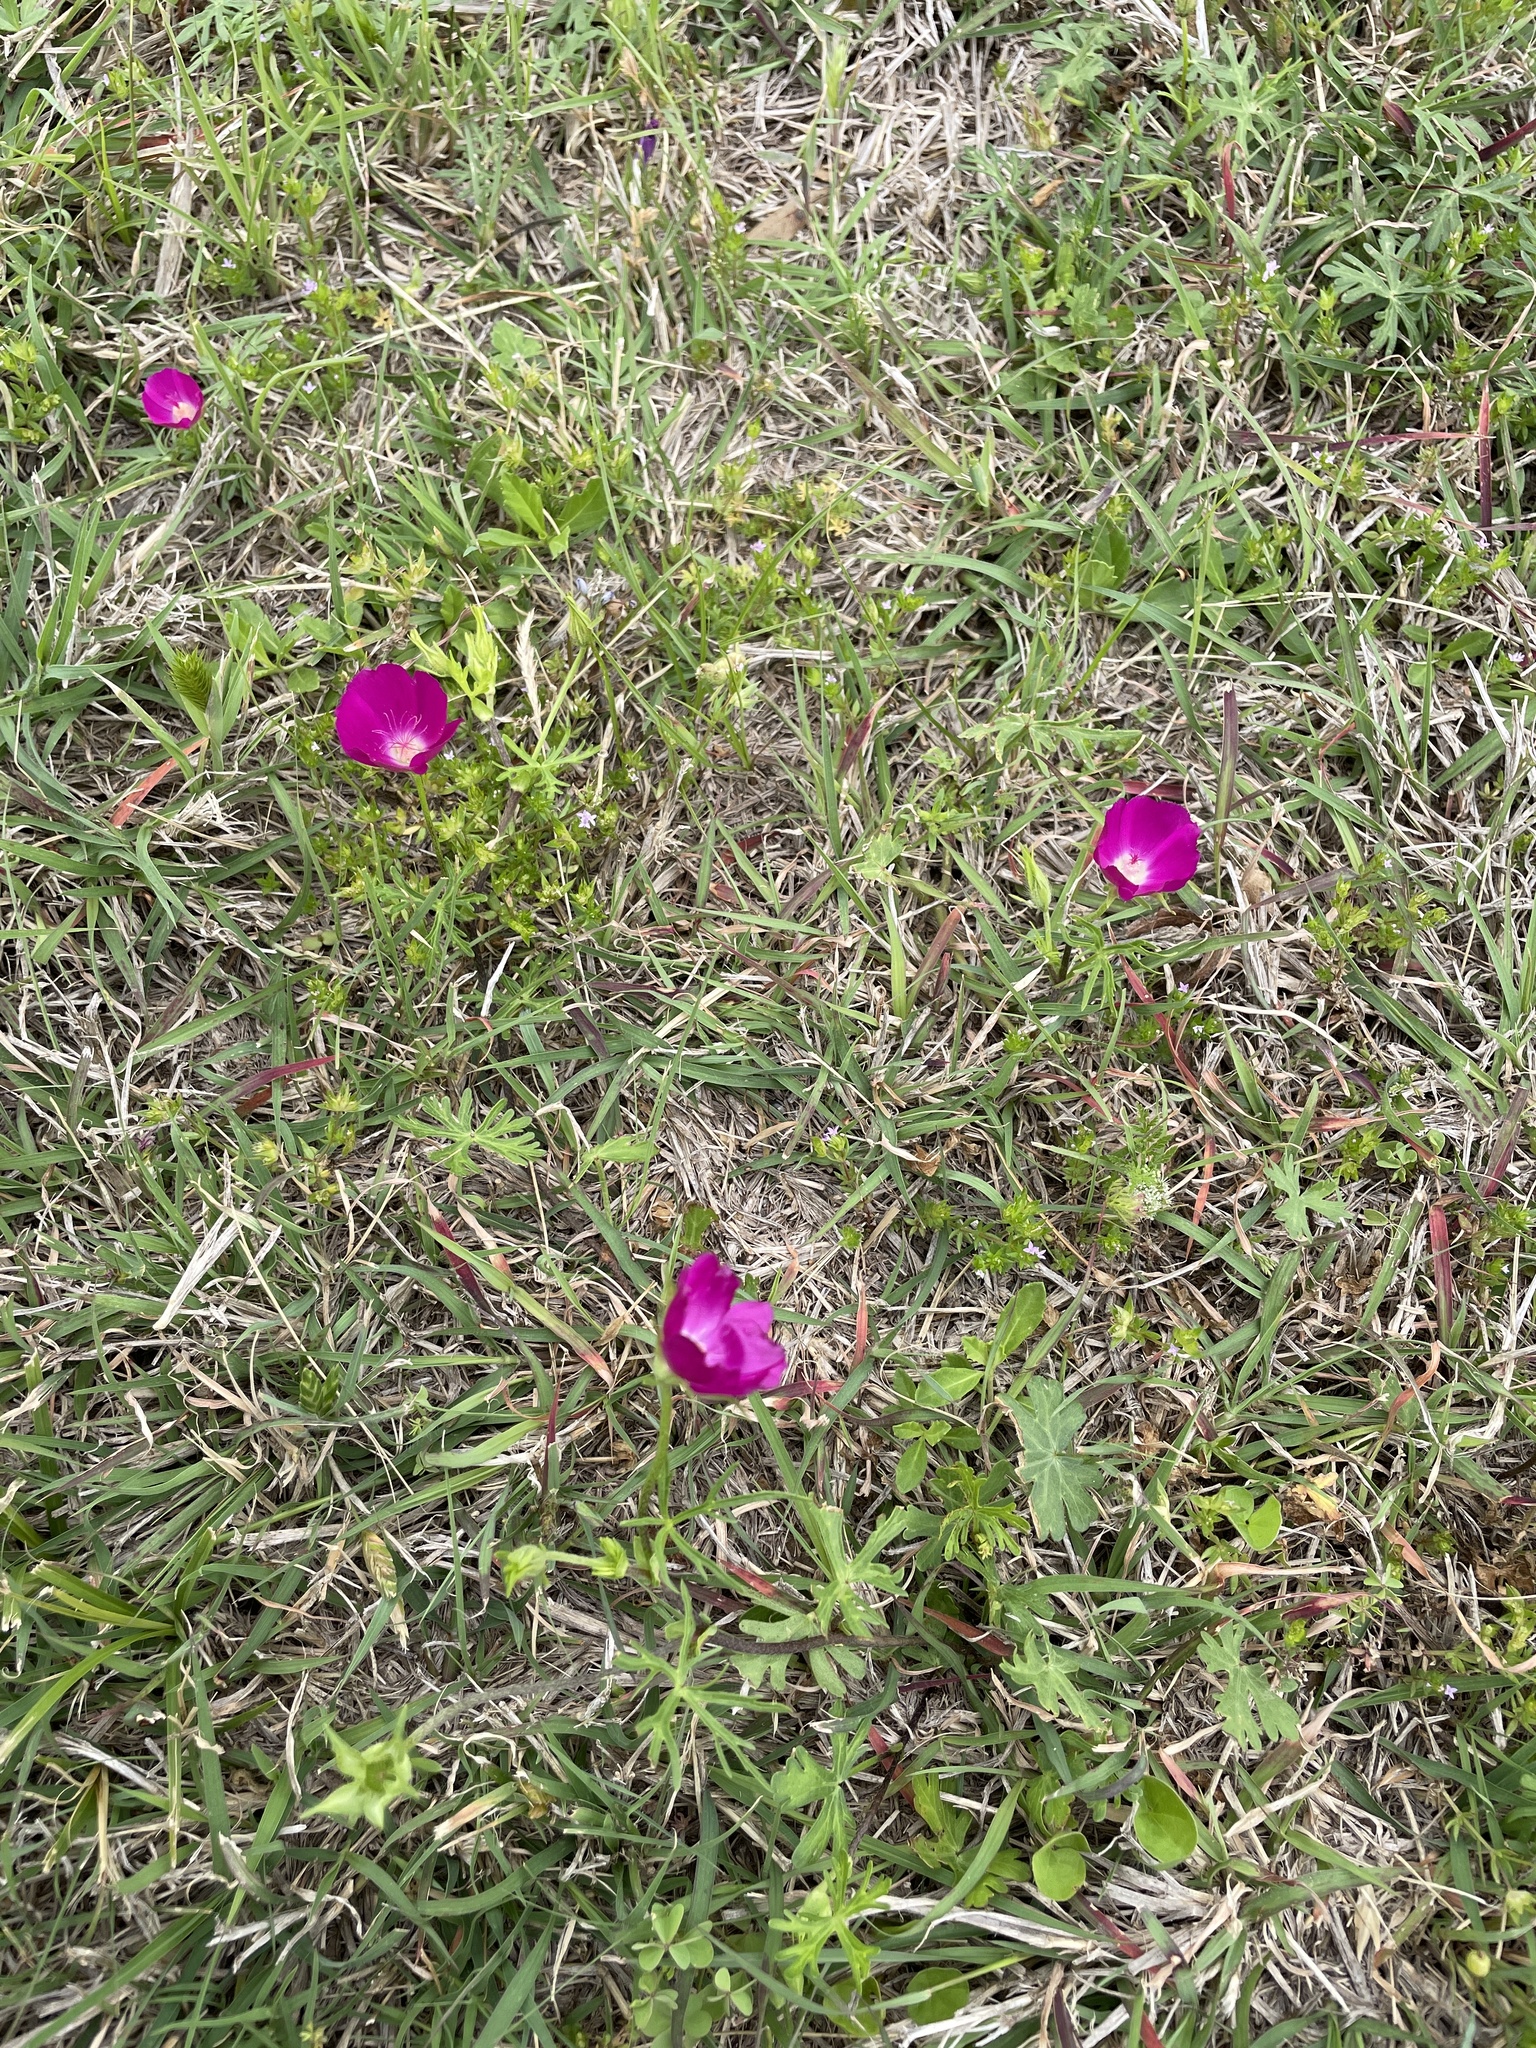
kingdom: Plantae
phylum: Tracheophyta
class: Magnoliopsida
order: Malvales
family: Malvaceae
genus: Callirhoe
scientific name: Callirhoe involucrata
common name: Purple poppy-mallow
